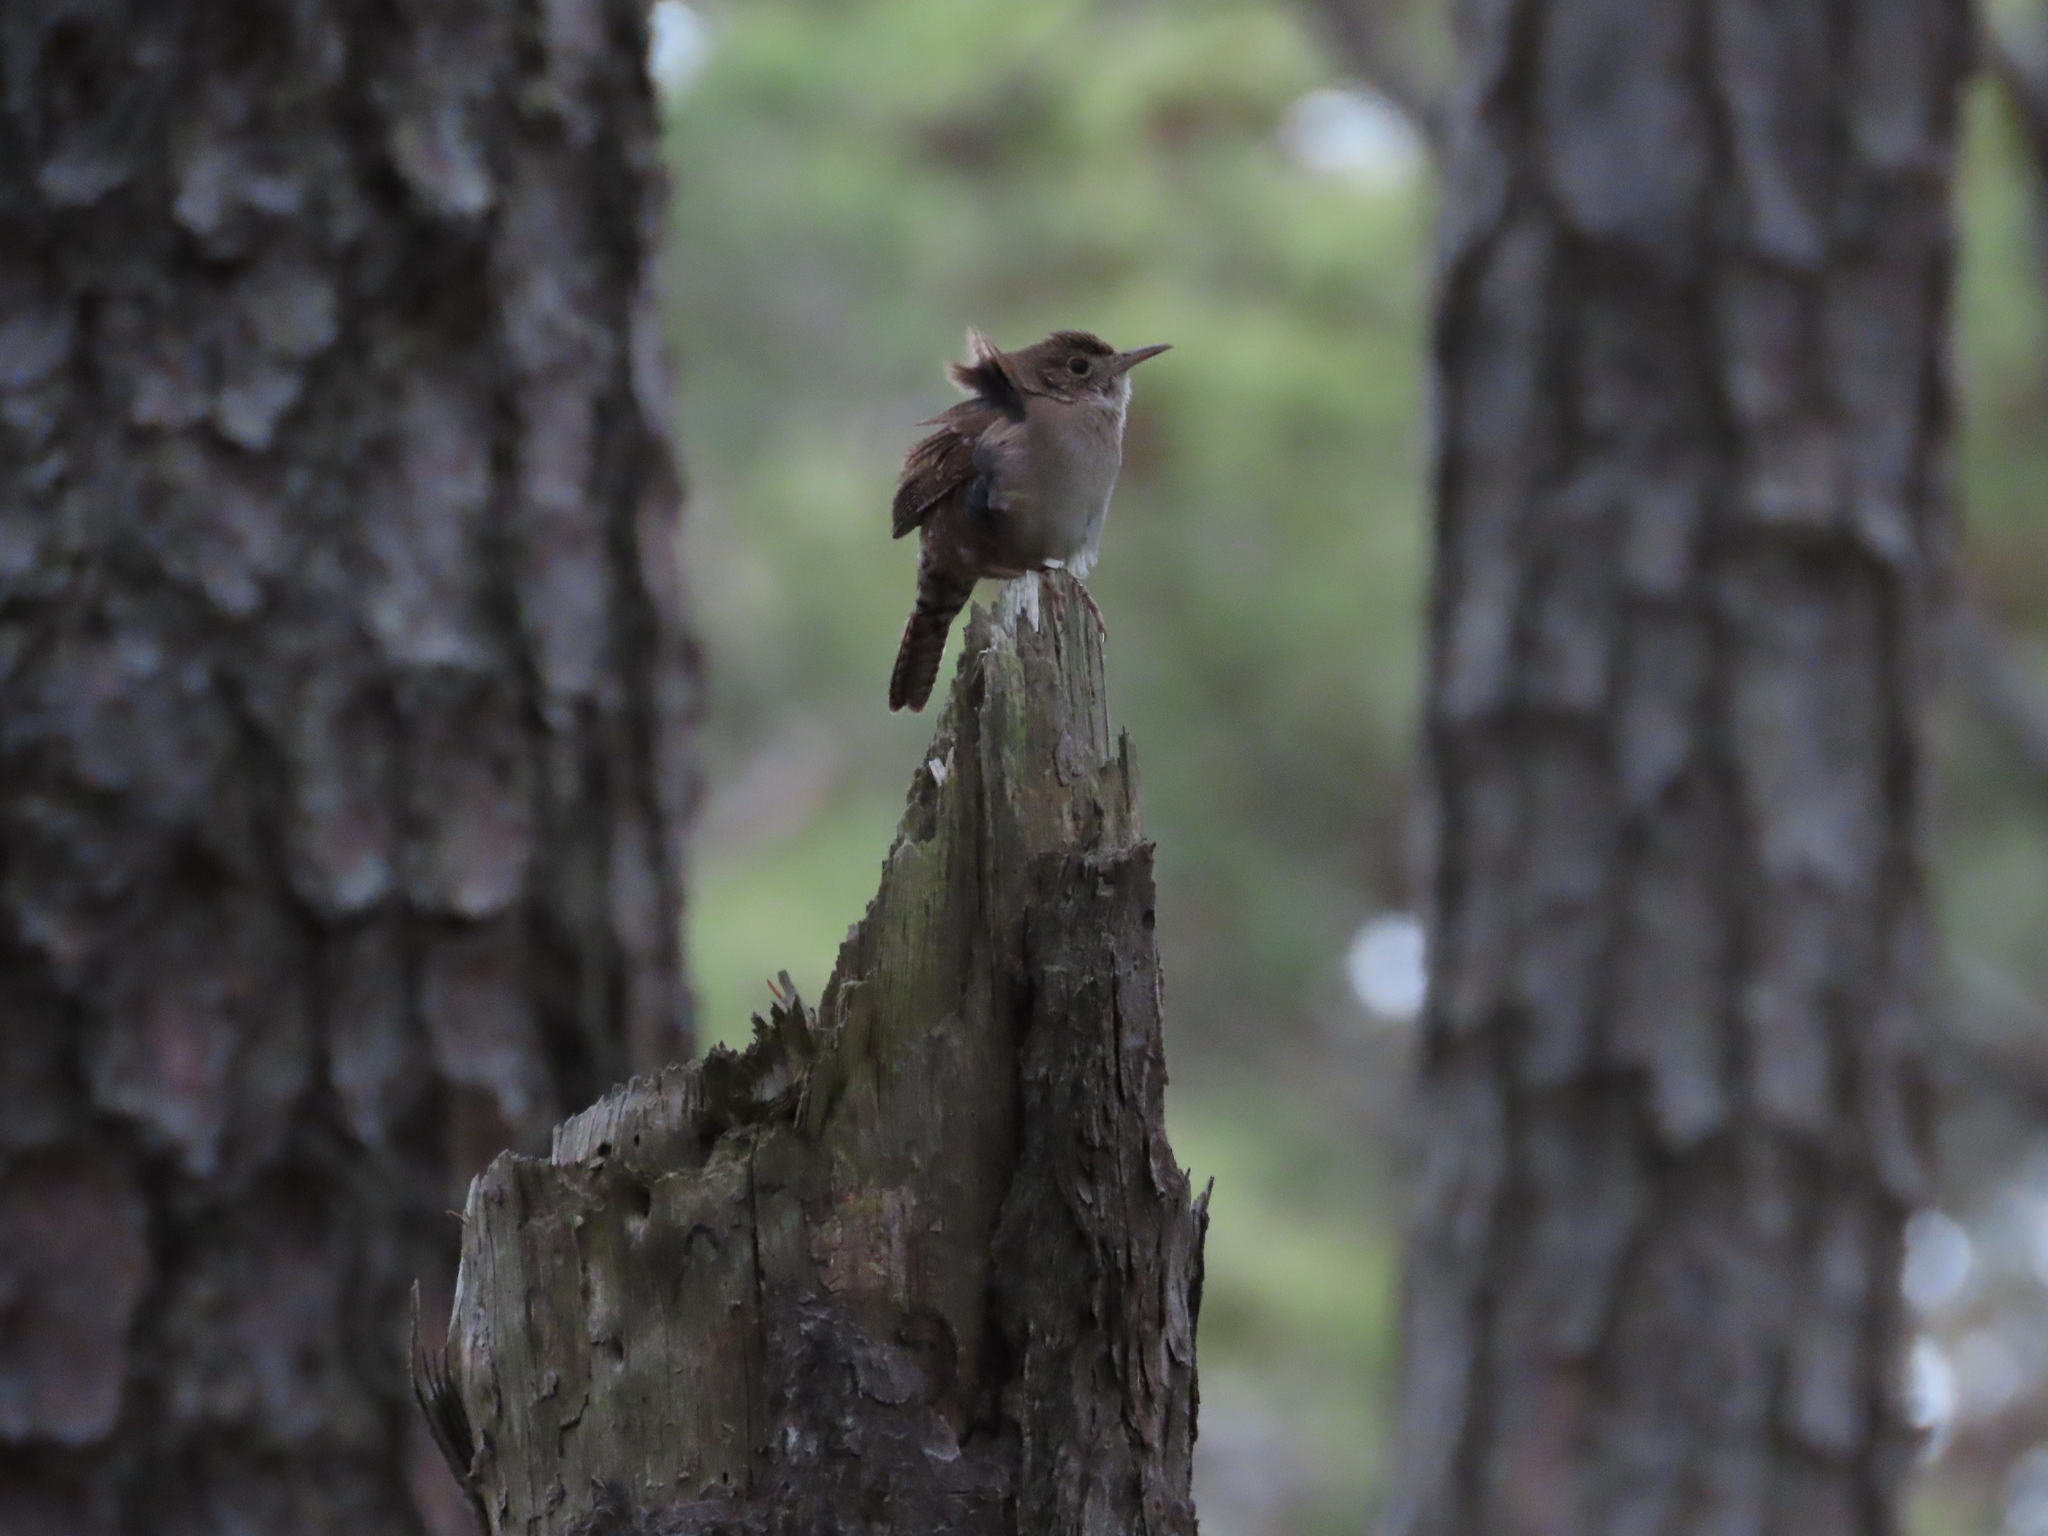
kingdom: Animalia
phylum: Chordata
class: Aves
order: Passeriformes
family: Troglodytidae
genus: Troglodytes
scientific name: Troglodytes aedon
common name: House wren
